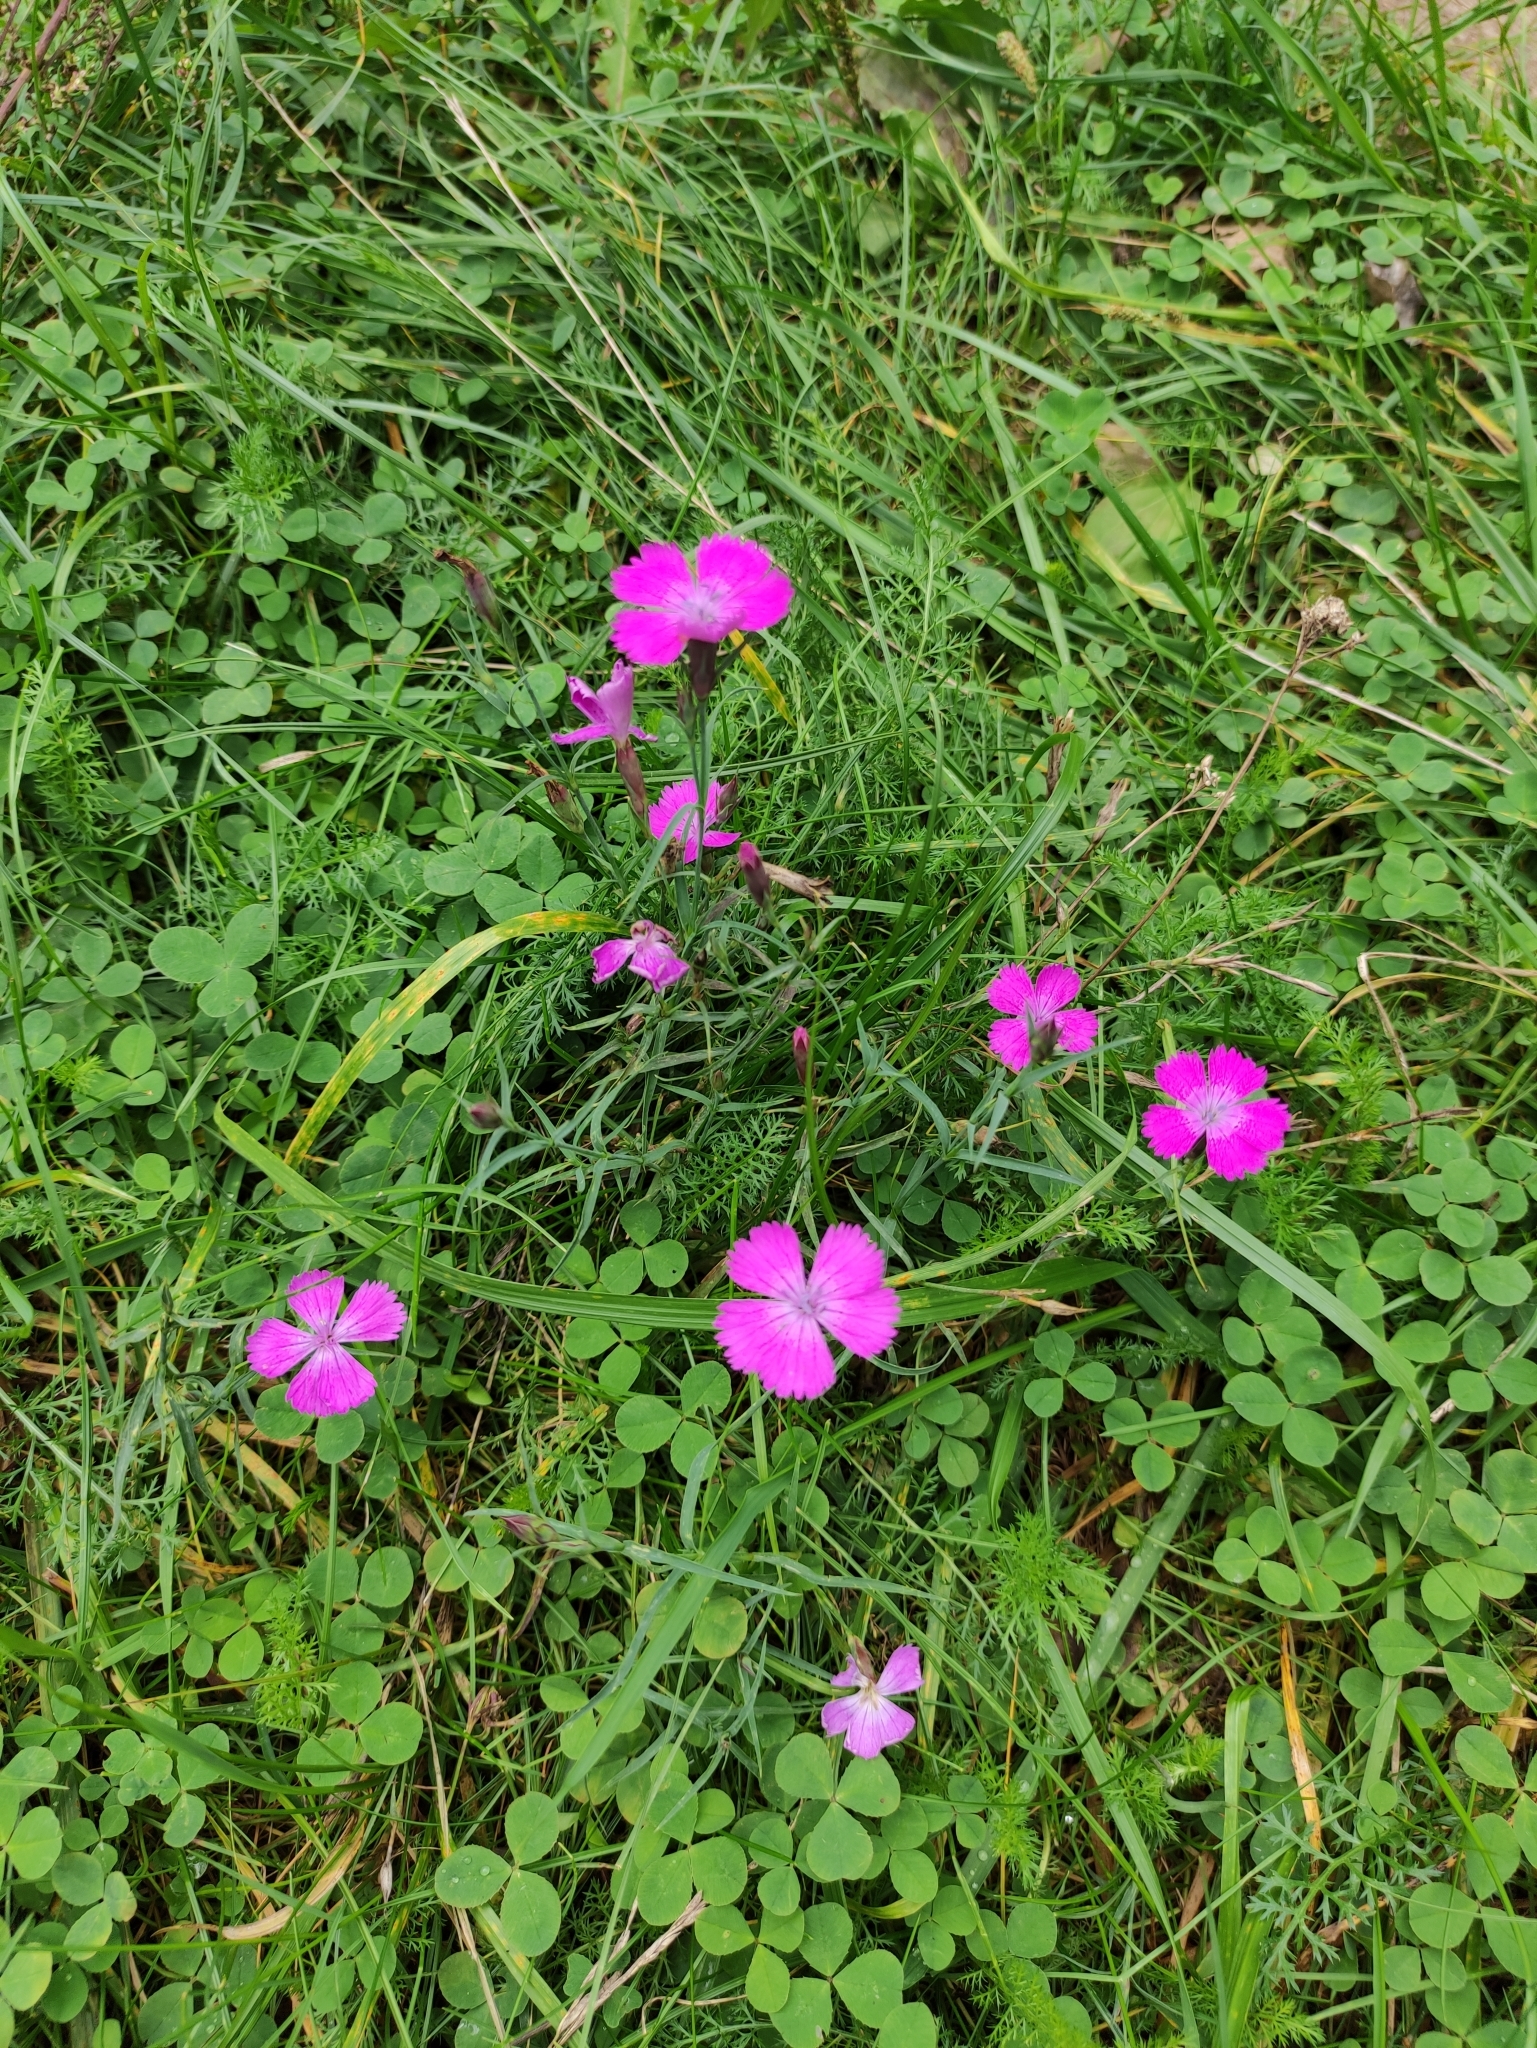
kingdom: Plantae
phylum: Tracheophyta
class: Magnoliopsida
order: Caryophyllales
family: Caryophyllaceae
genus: Dianthus
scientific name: Dianthus chinensis
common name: Rainbow pink
